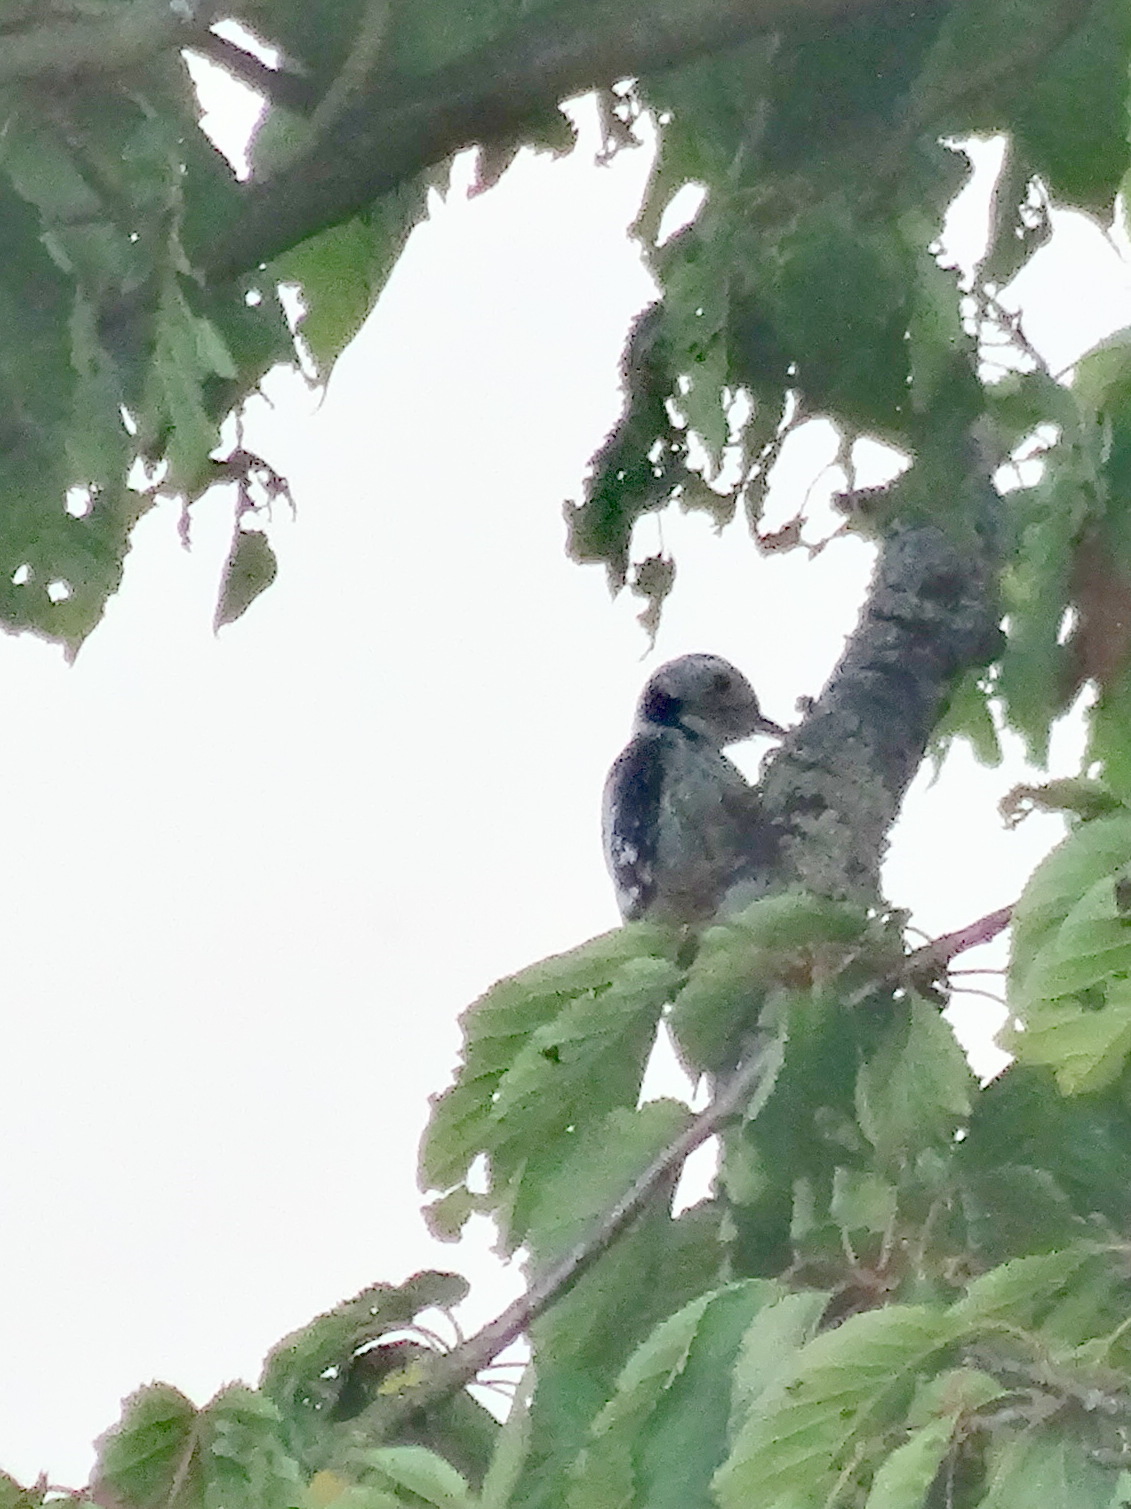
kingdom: Animalia
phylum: Chordata
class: Aves
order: Piciformes
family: Picidae
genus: Dendrocoptes
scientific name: Dendrocoptes medius
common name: Middle spotted woodpecker
